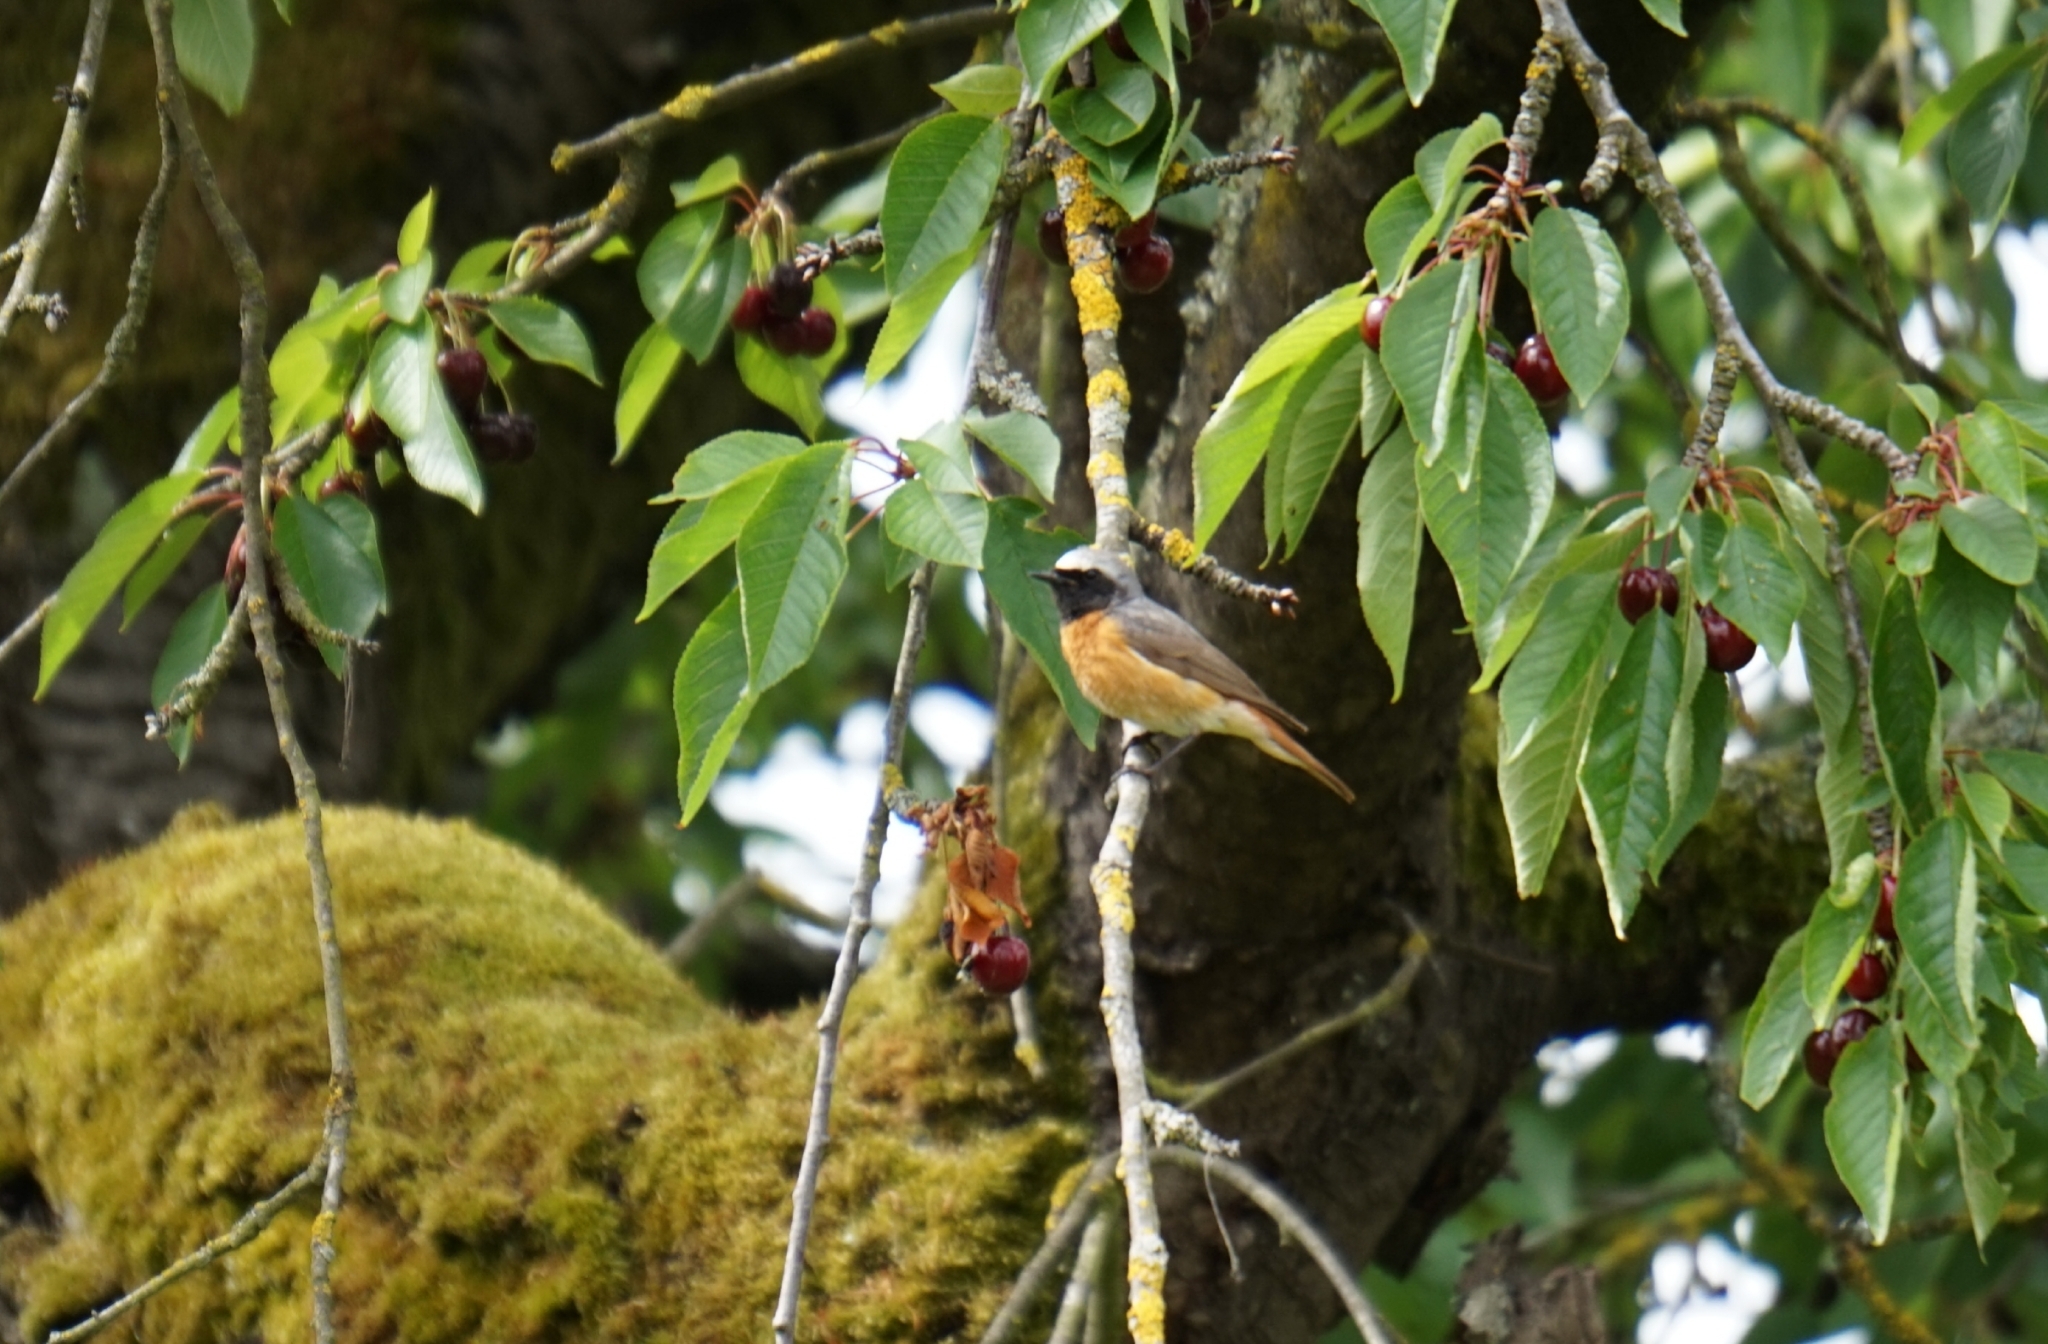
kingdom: Animalia
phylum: Chordata
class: Aves
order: Passeriformes
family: Muscicapidae
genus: Phoenicurus
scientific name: Phoenicurus phoenicurus
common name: Common redstart
